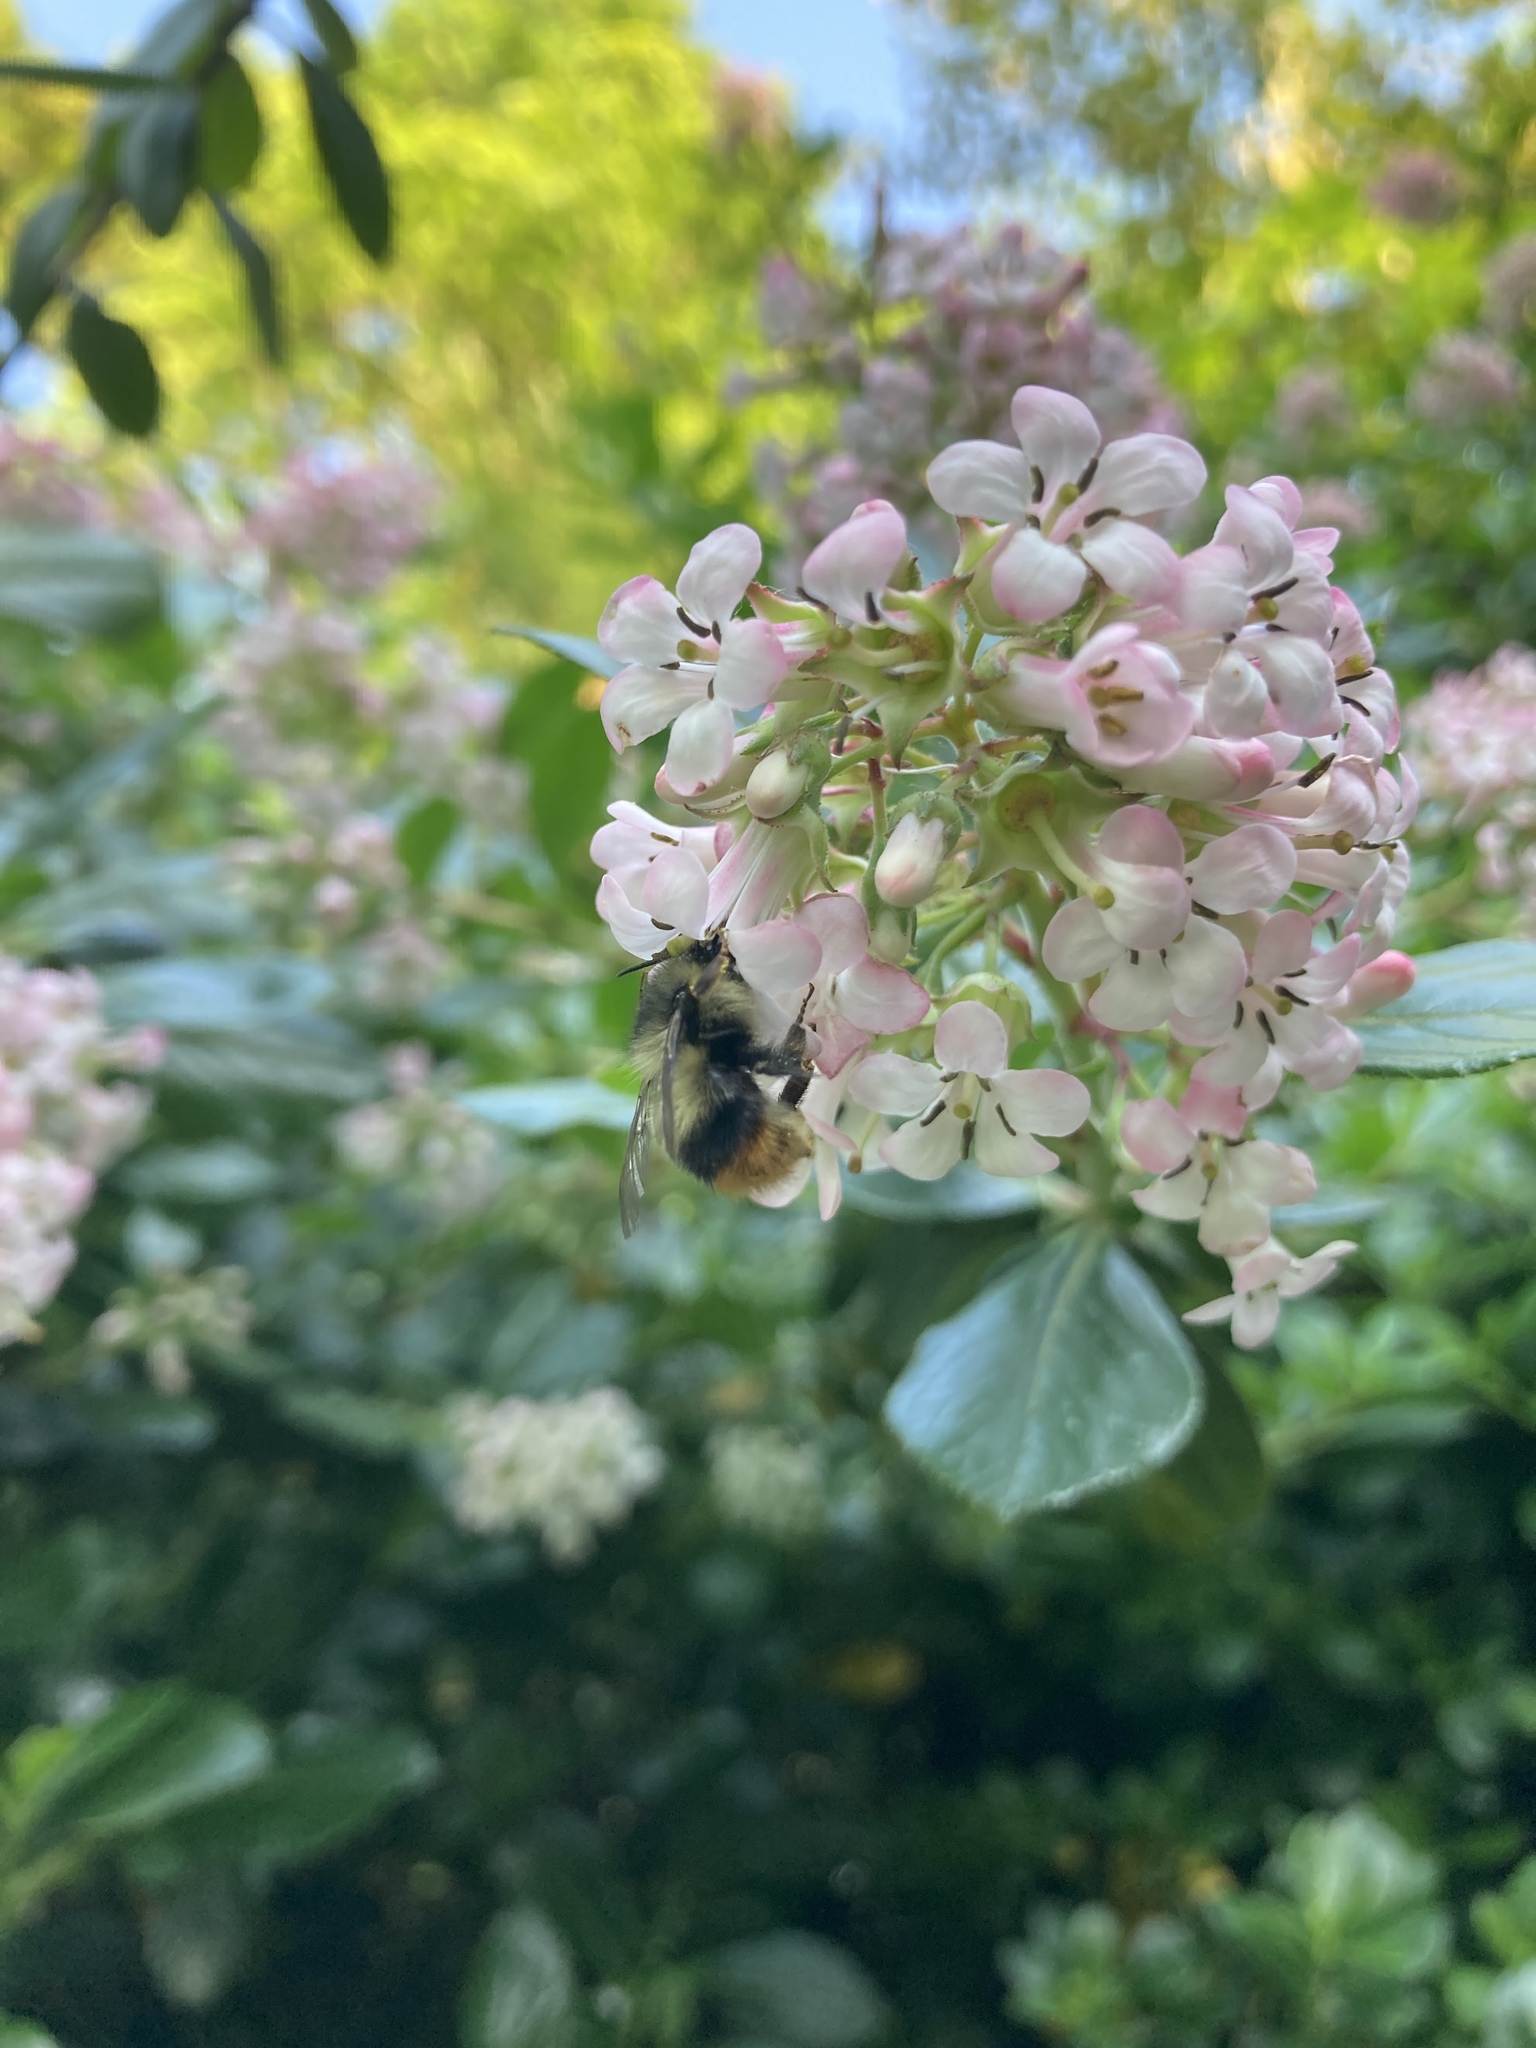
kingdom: Animalia
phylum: Arthropoda
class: Insecta
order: Hymenoptera
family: Apidae
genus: Bombus
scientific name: Bombus mixtus
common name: Fuzzy-horned bumble bee
